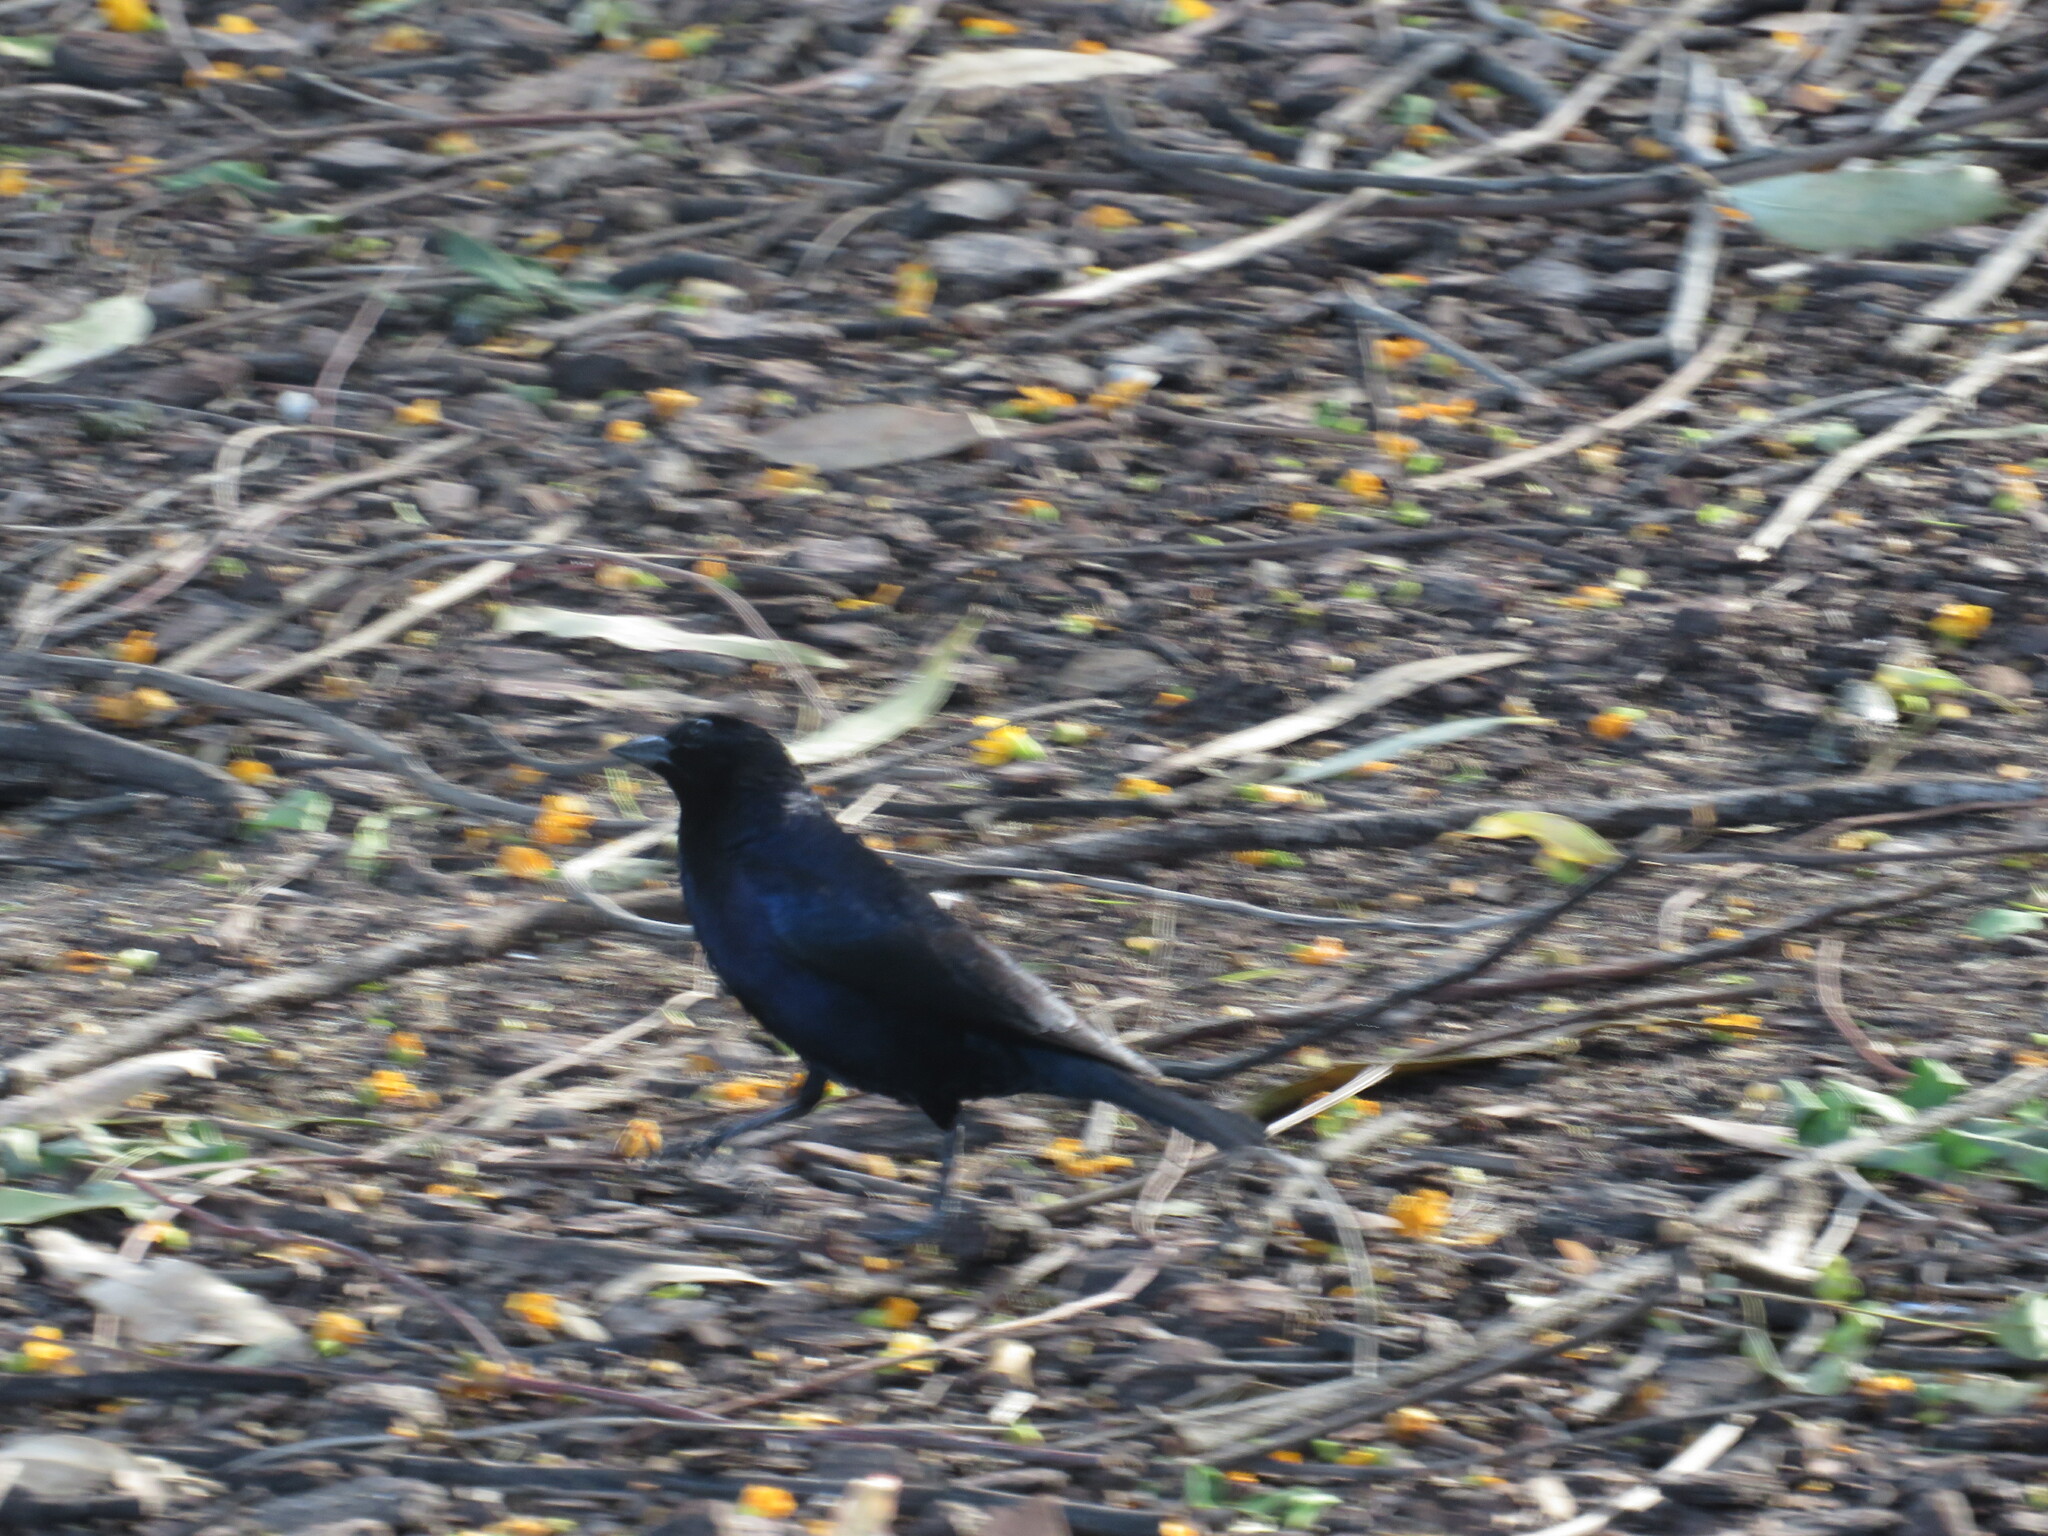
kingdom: Animalia
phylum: Chordata
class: Aves
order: Passeriformes
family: Icteridae
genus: Molothrus
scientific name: Molothrus bonariensis
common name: Shiny cowbird
